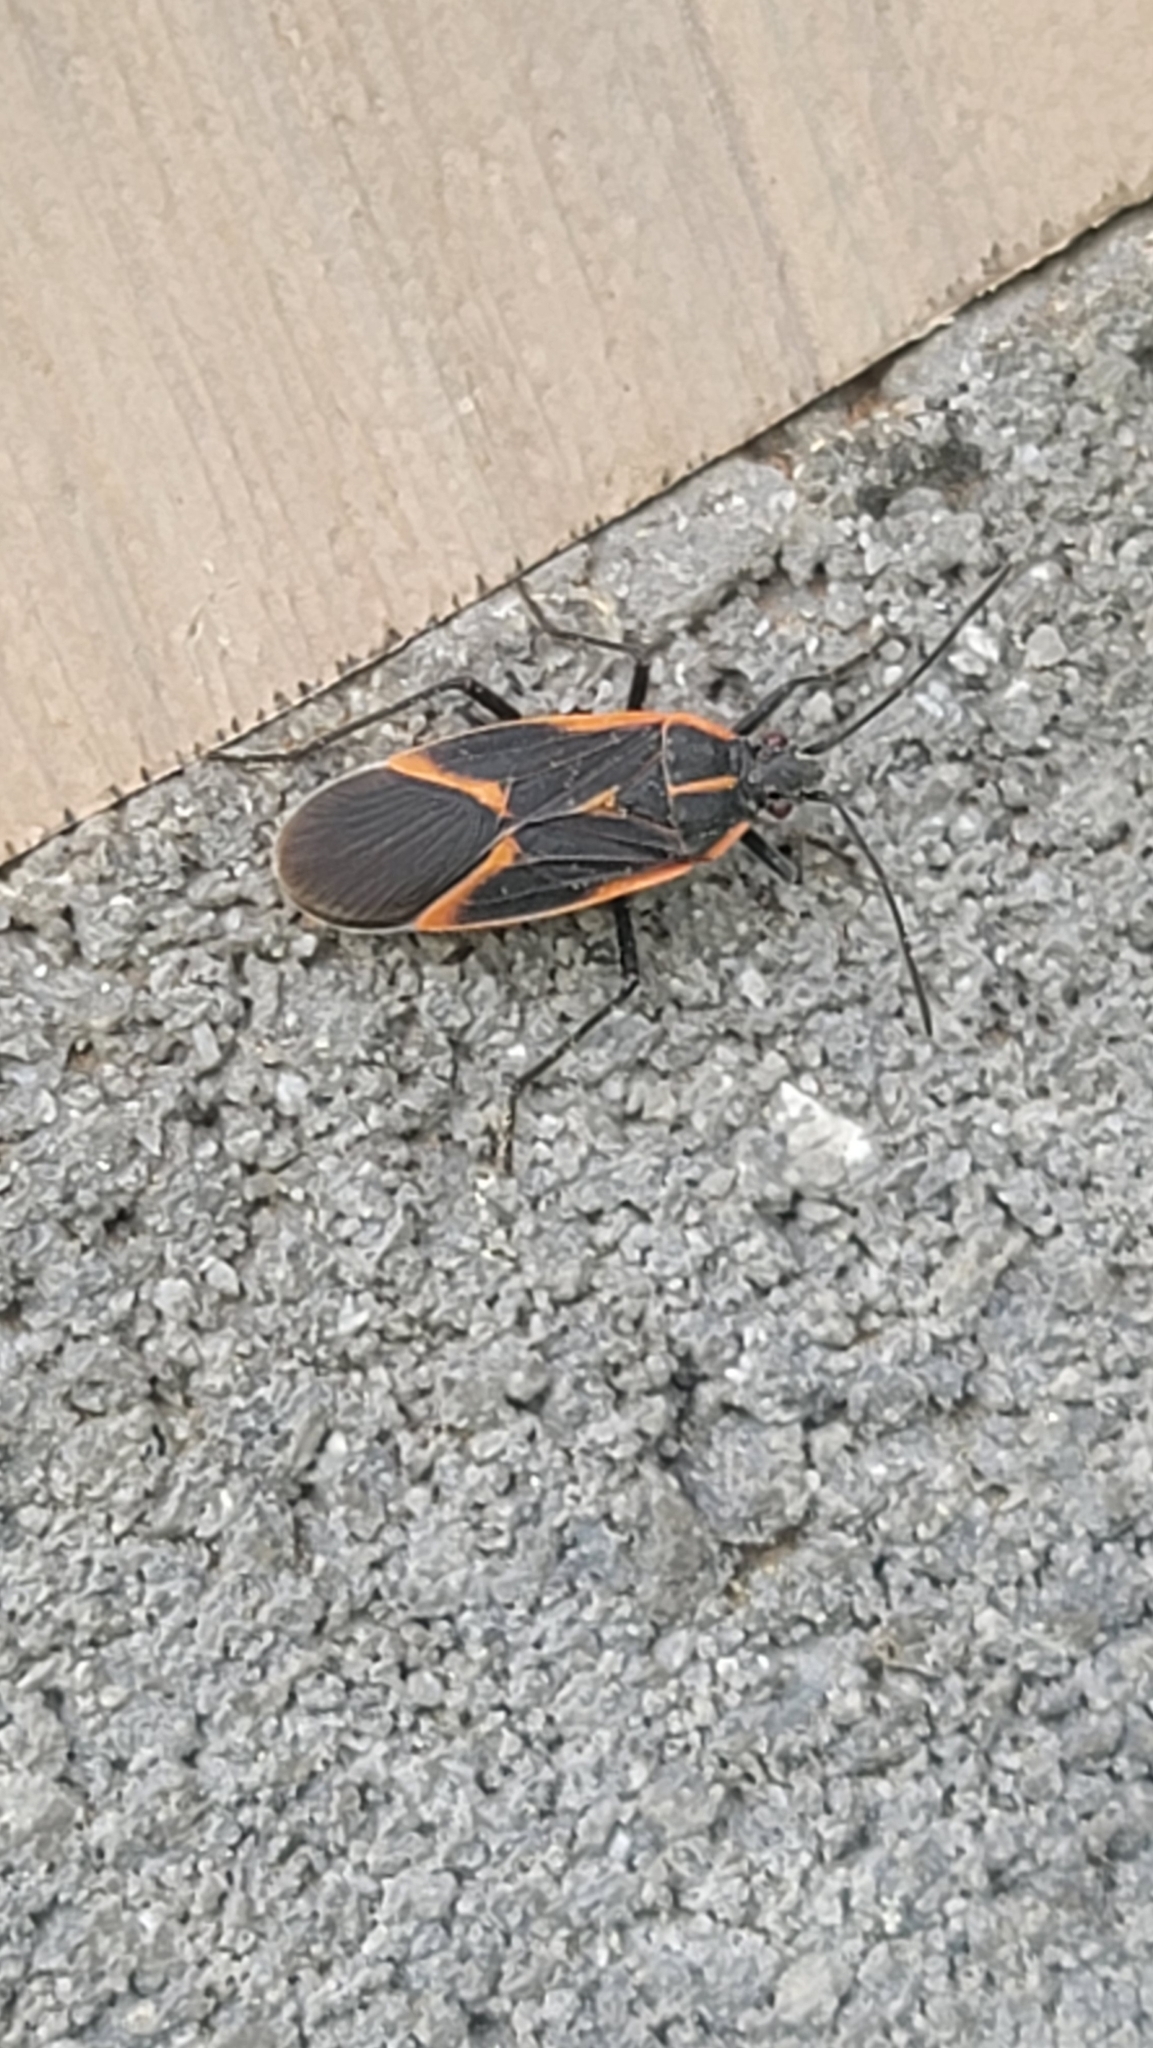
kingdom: Animalia
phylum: Arthropoda
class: Insecta
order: Hemiptera
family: Rhopalidae
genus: Boisea
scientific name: Boisea trivittata
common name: Boxelder bug
